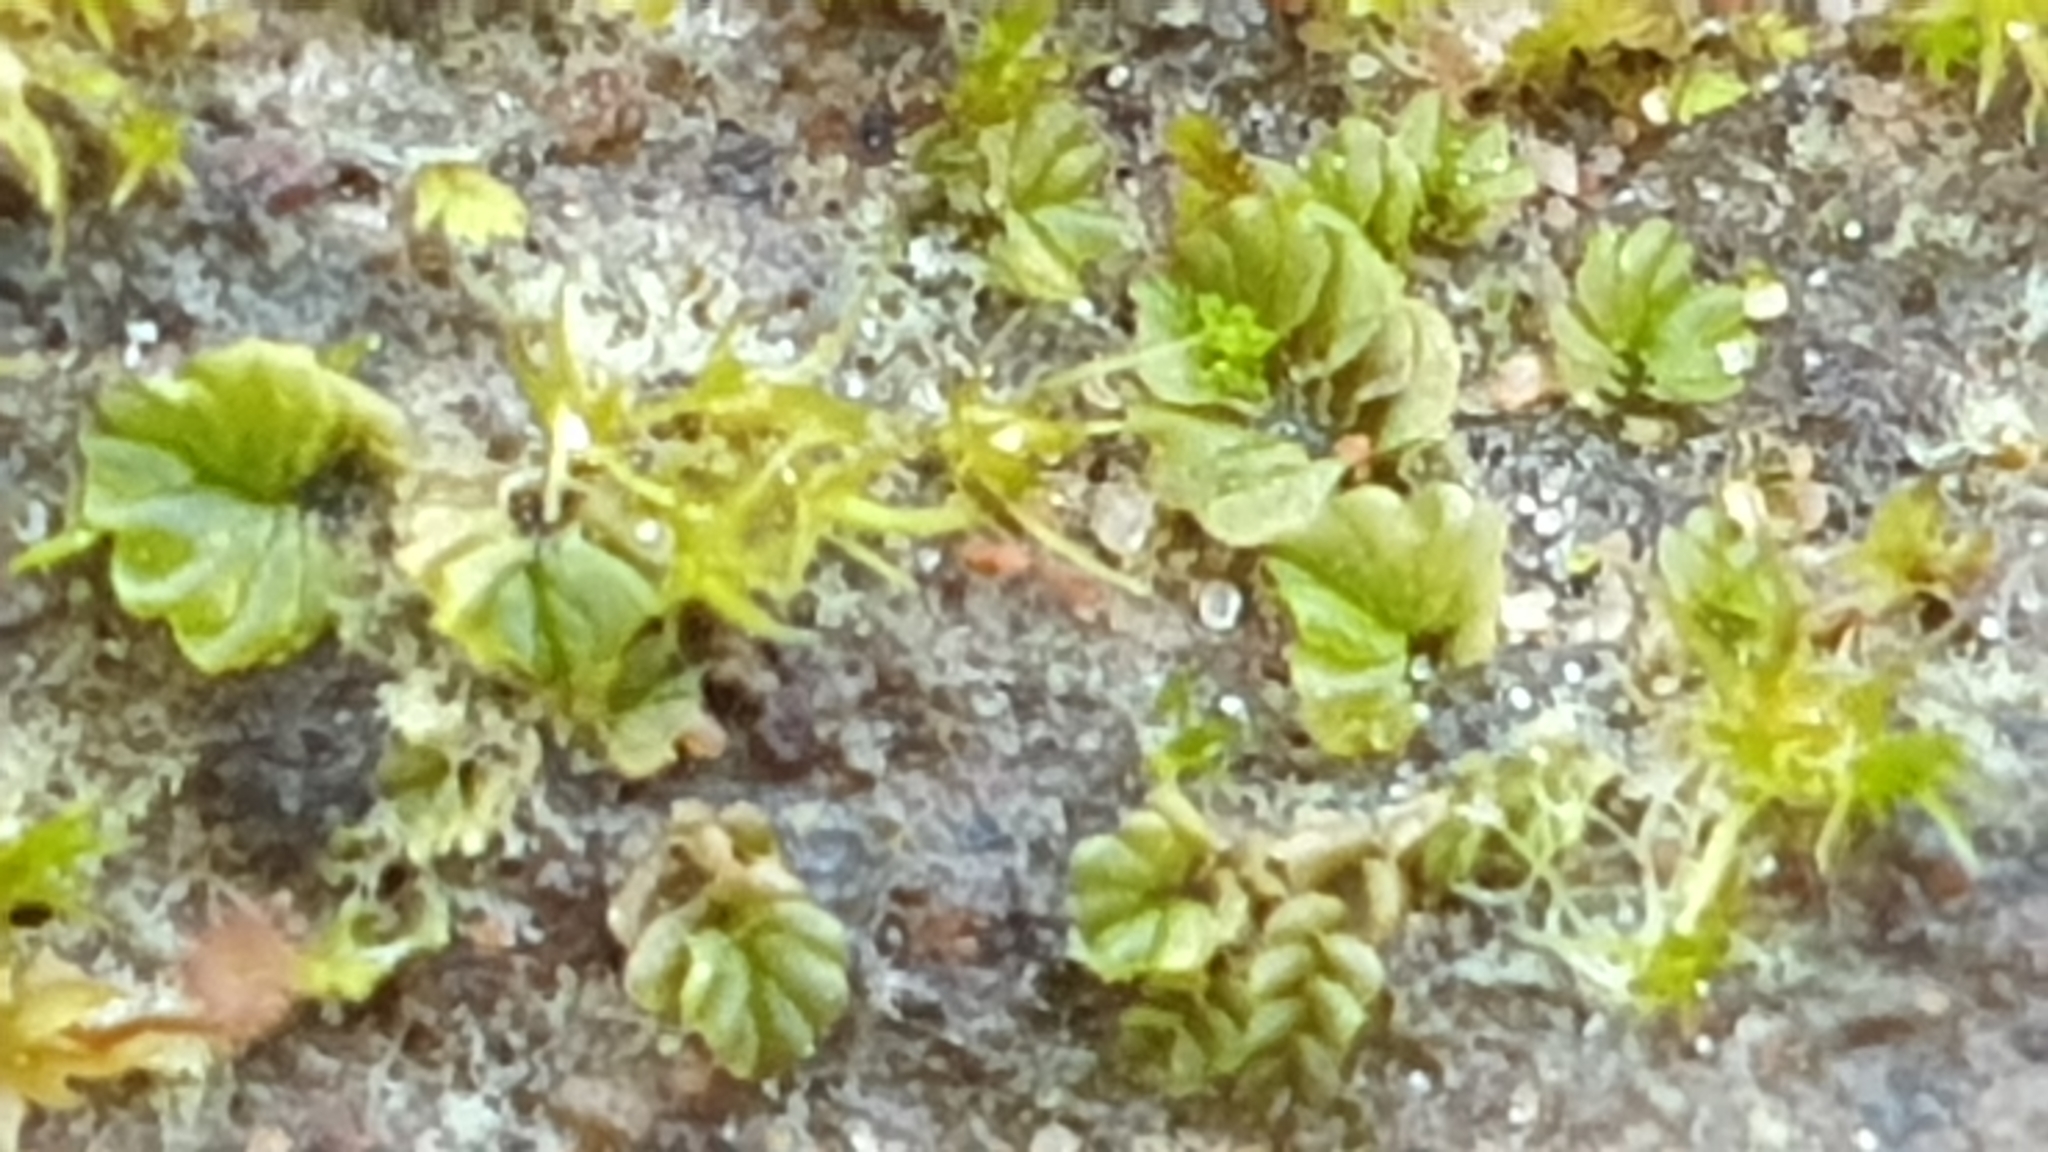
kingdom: Plantae
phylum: Marchantiophyta
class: Jungermanniopsida
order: Jungermanniales
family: Acrobolbaceae
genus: Lethocolea
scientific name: Lethocolea pansa
